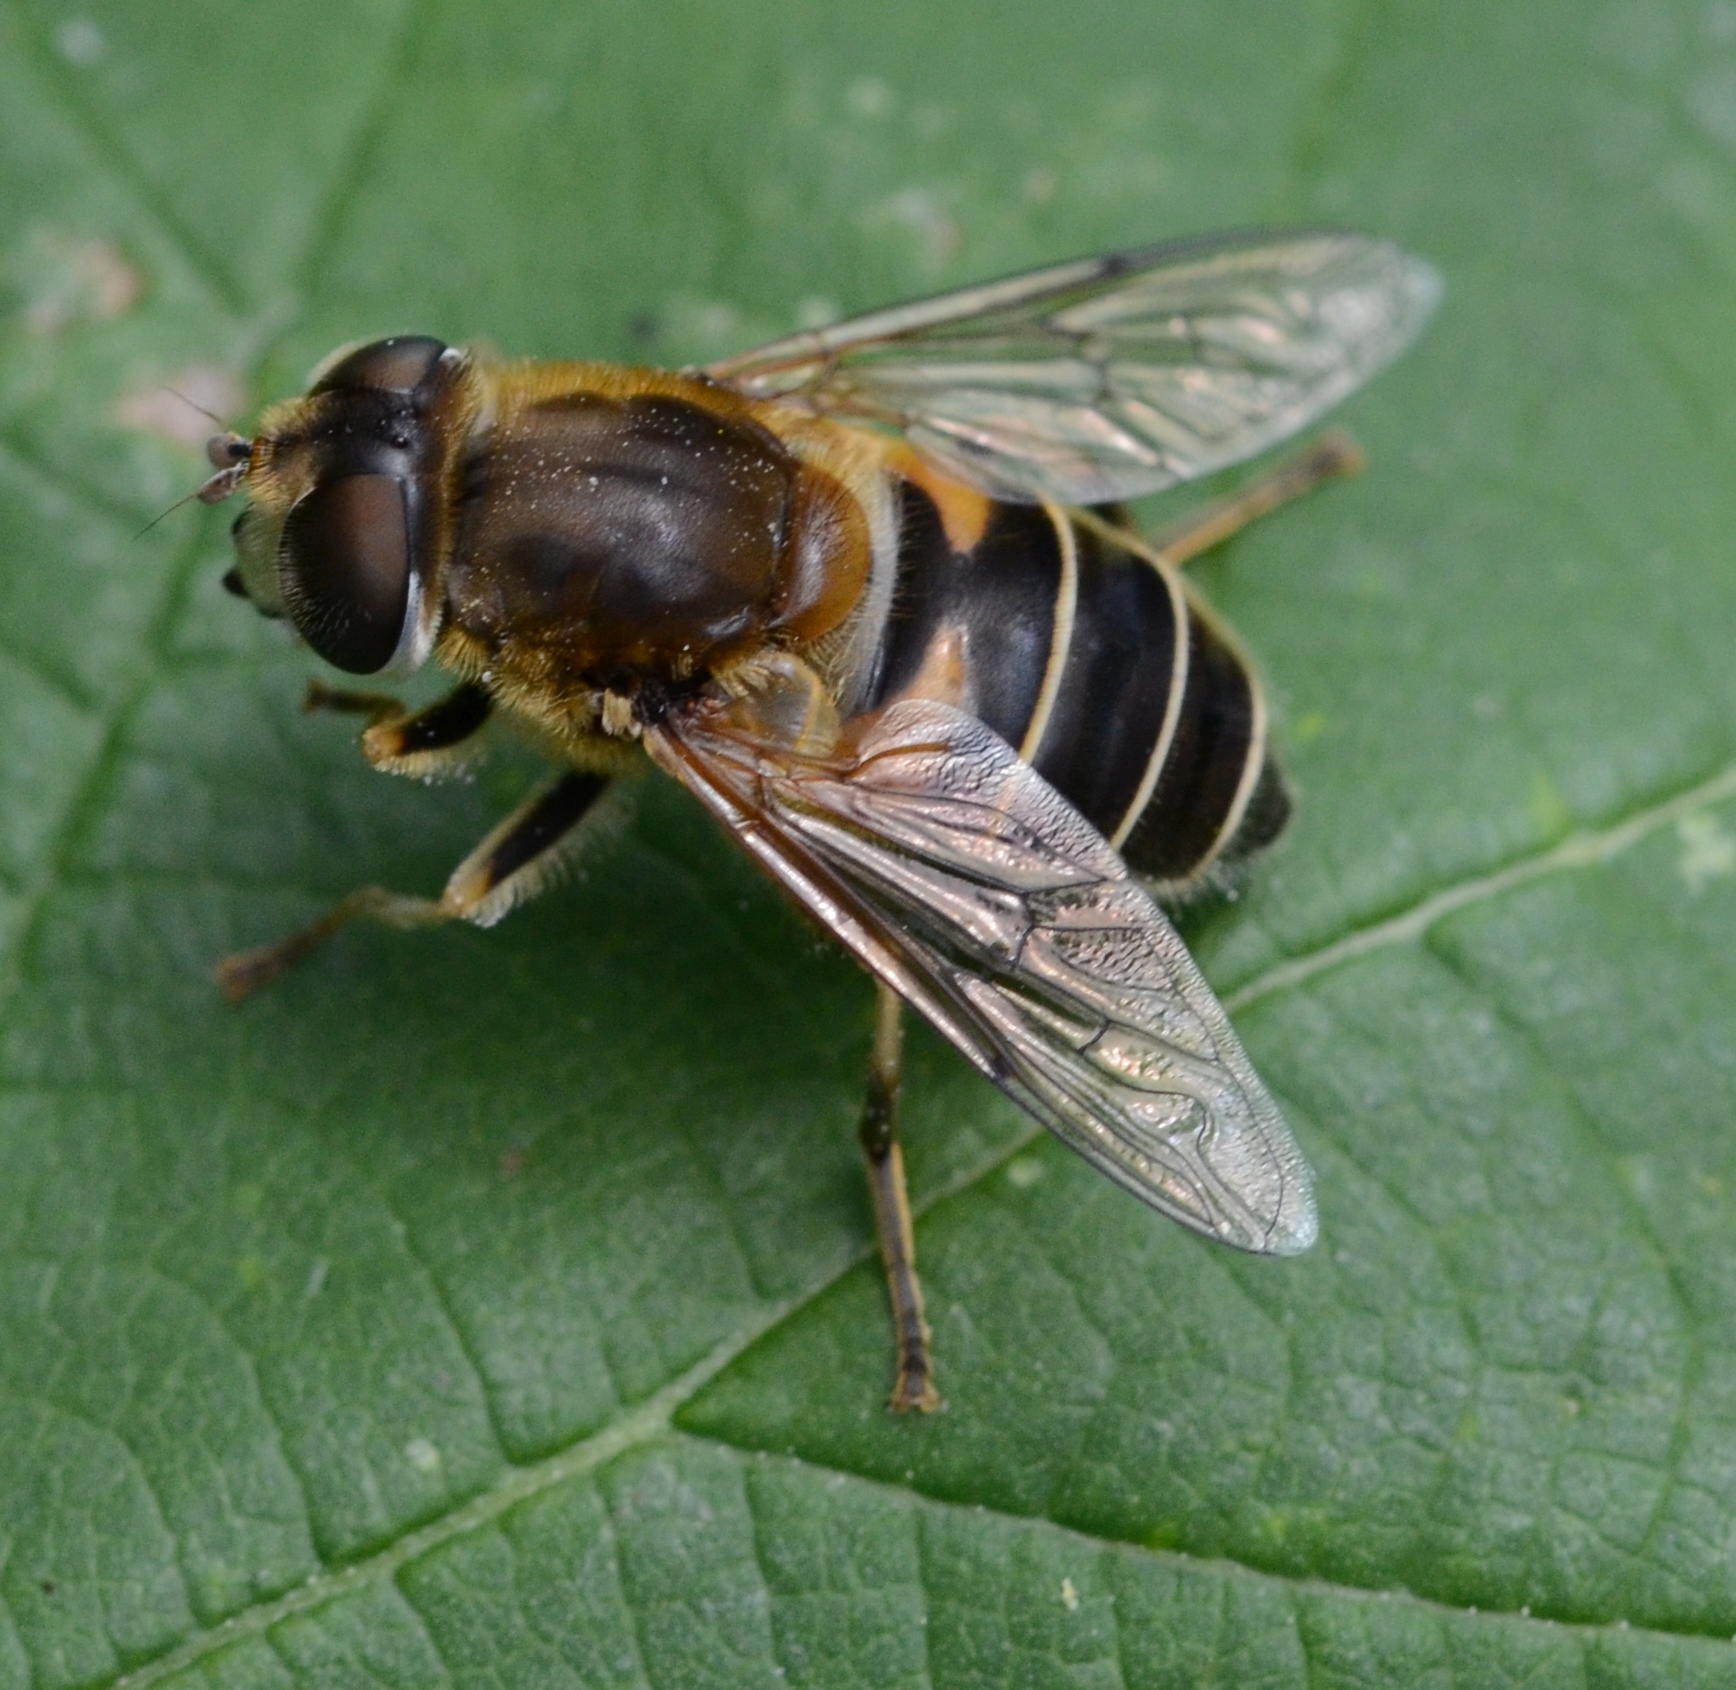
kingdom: Animalia
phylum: Arthropoda
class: Insecta
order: Diptera
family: Syrphidae
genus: Eristalis
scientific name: Eristalis tenax
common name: Drone fly
